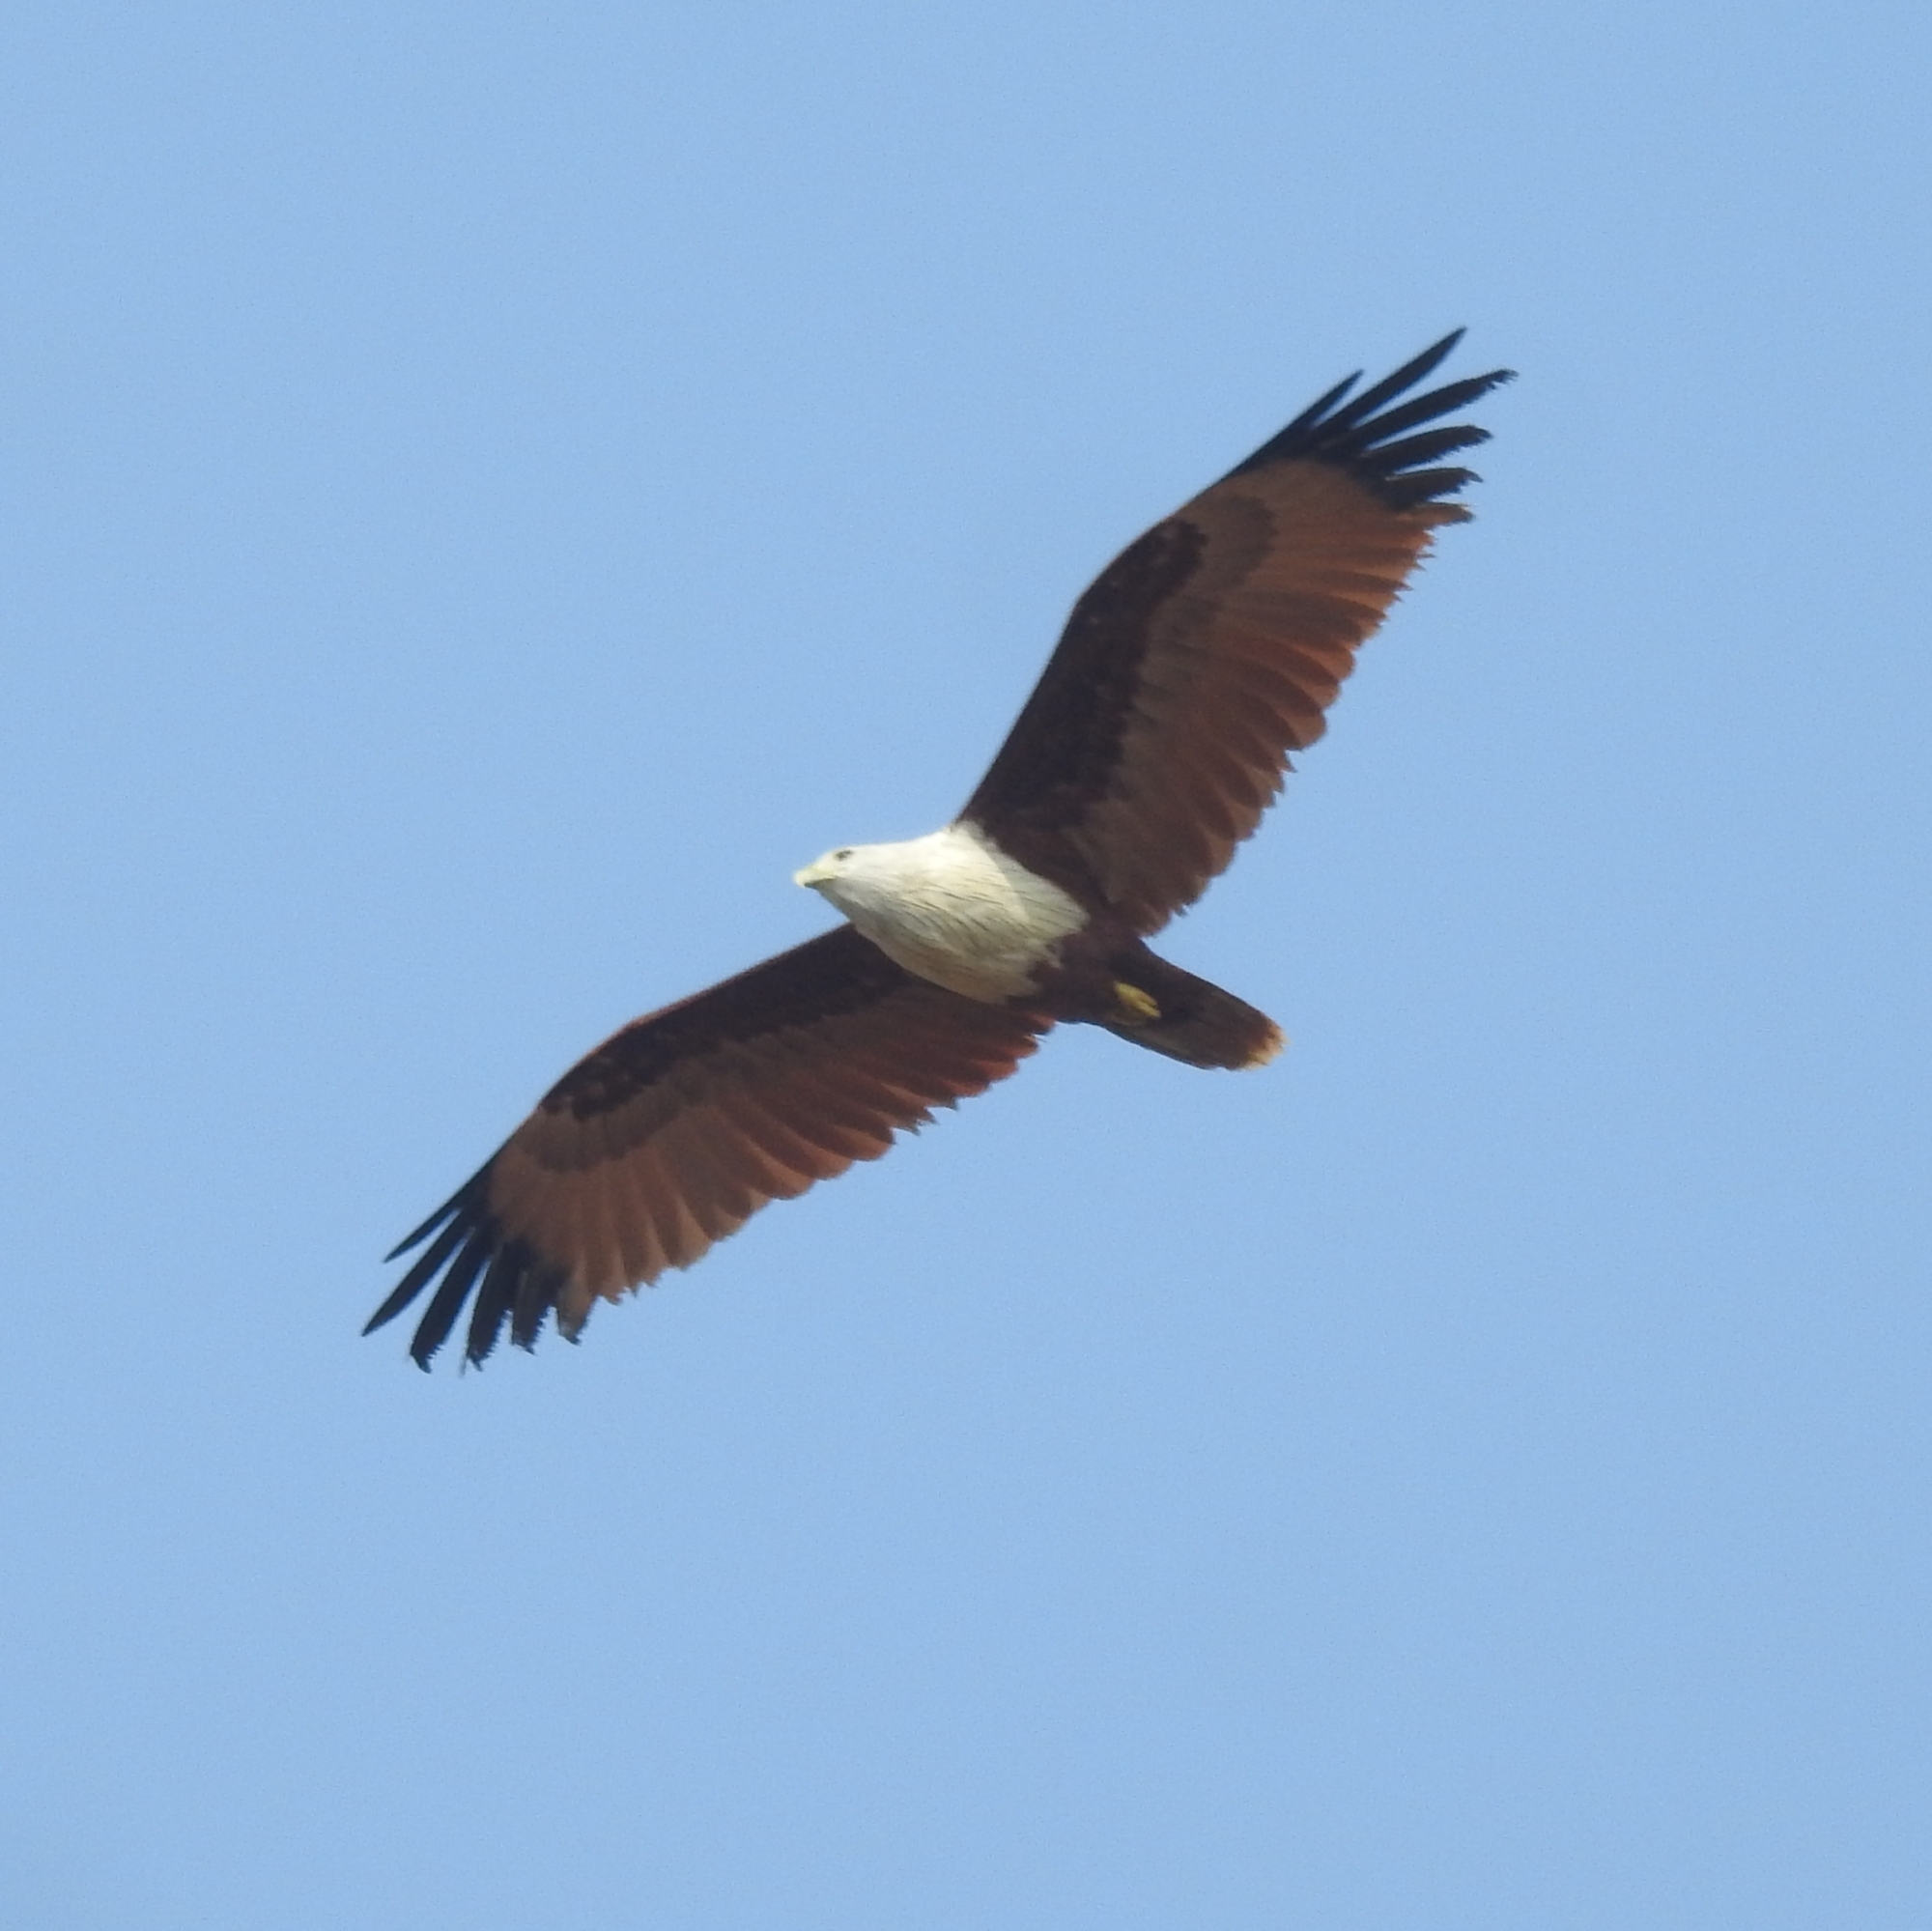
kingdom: Animalia
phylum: Chordata
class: Aves
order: Accipitriformes
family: Accipitridae
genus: Haliastur
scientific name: Haliastur indus
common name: Brahminy kite
